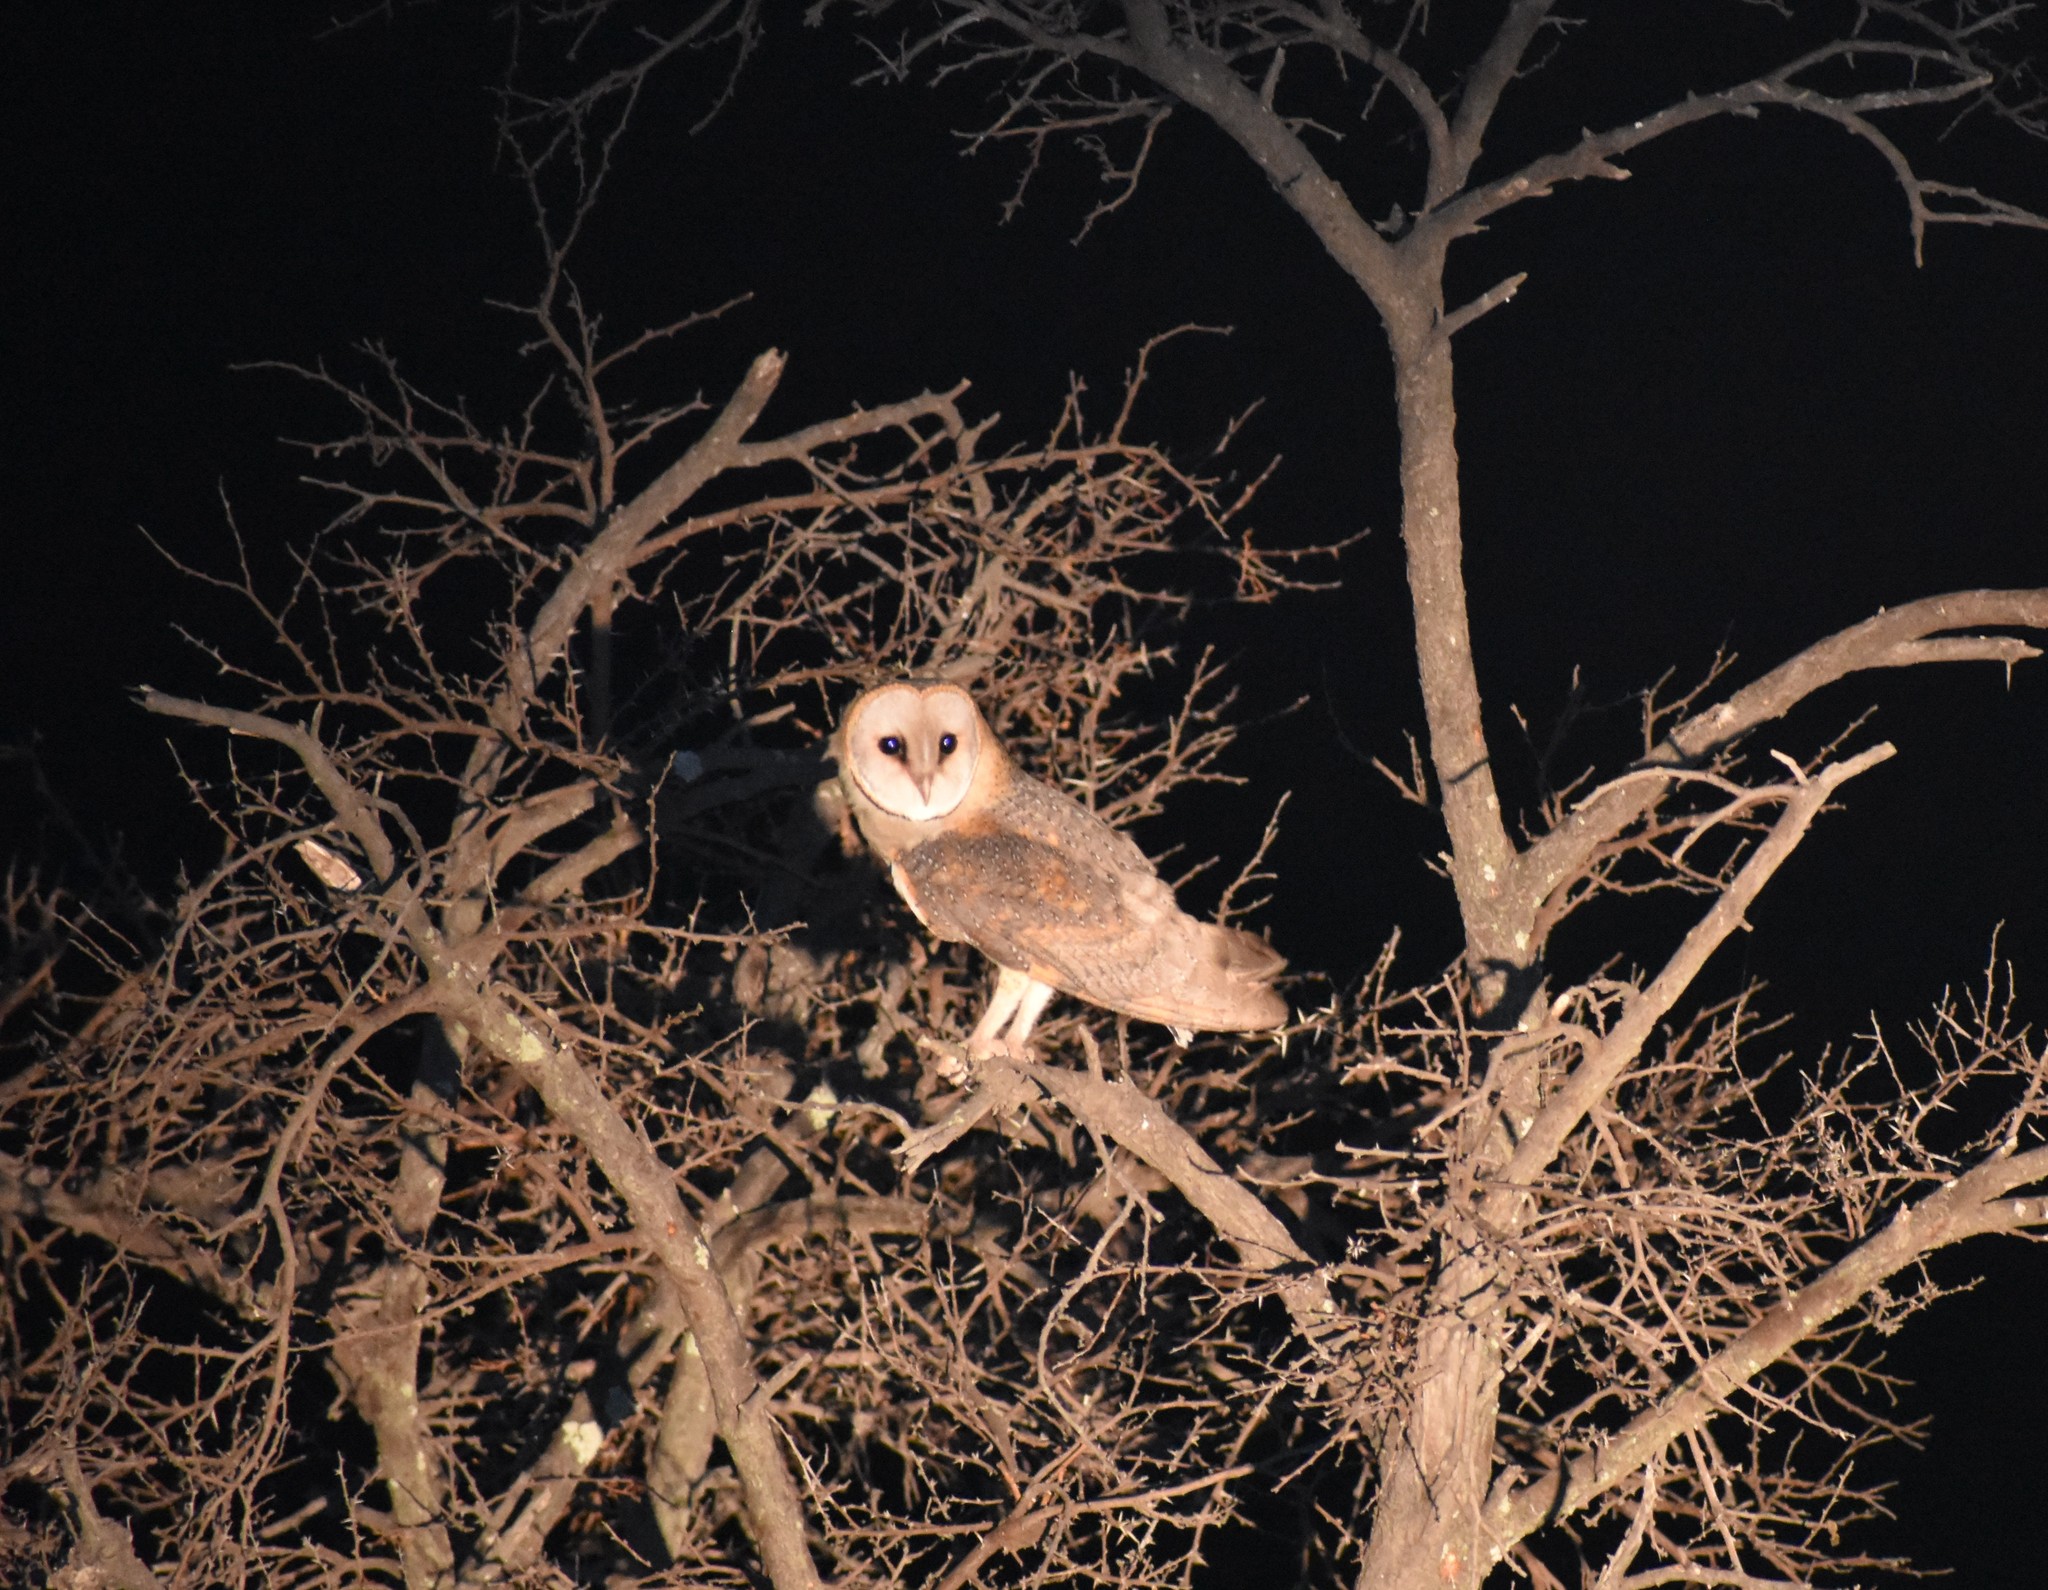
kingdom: Animalia
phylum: Chordata
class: Aves
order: Strigiformes
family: Tytonidae
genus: Tyto
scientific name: Tyto alba
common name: Barn owl
